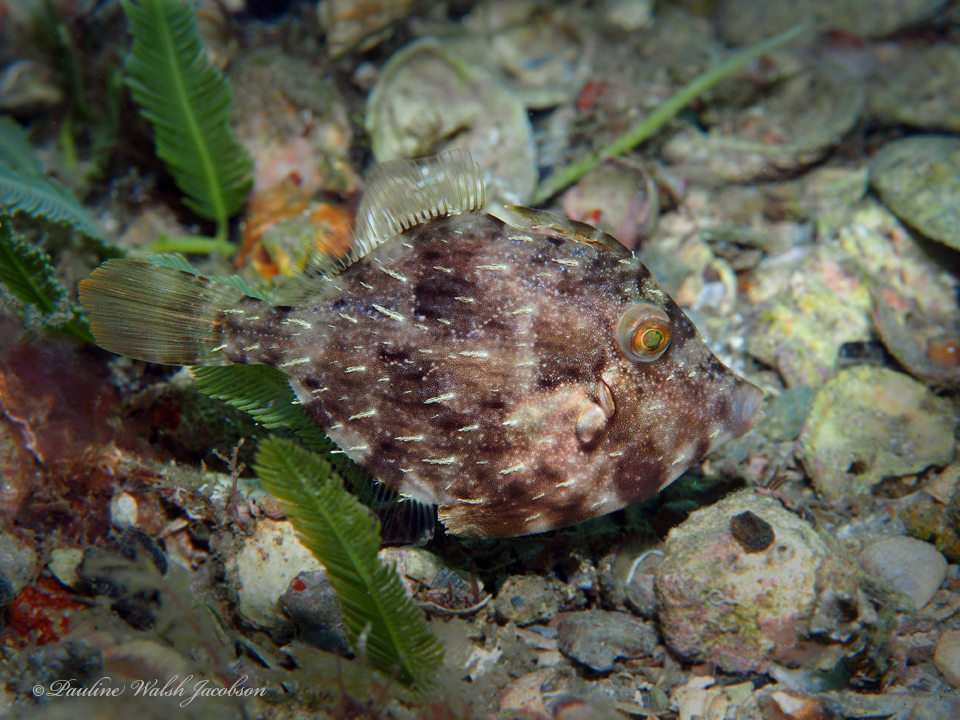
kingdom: Animalia
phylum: Chordata
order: Tetraodontiformes
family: Monacanthidae
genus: Stephanolepis
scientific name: Stephanolepis hispidus
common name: Planehead filefish
